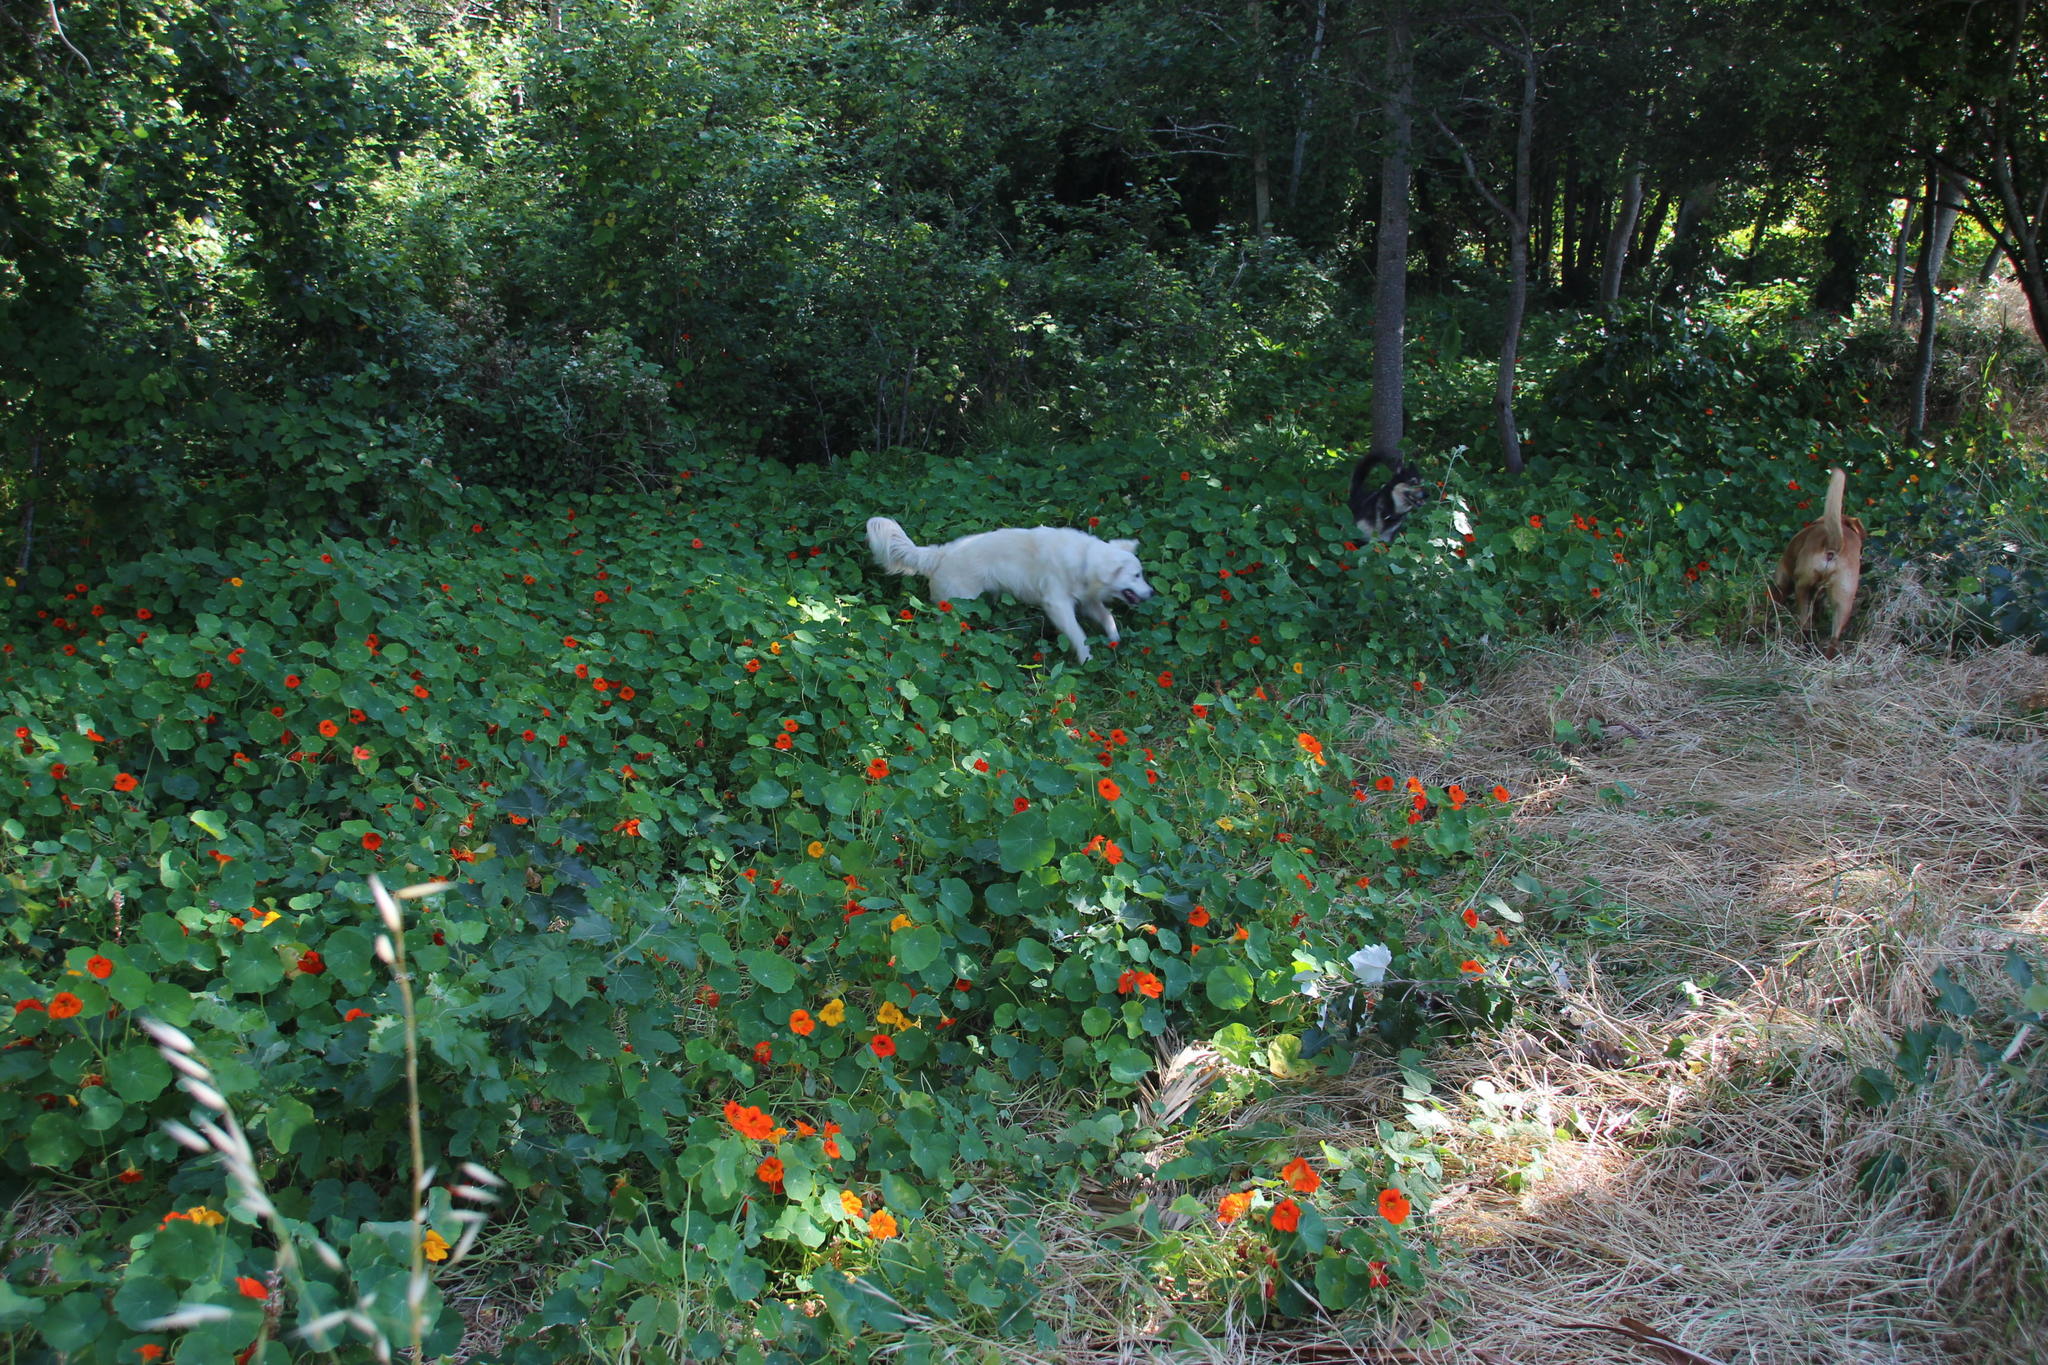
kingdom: Plantae
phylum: Tracheophyta
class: Magnoliopsida
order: Brassicales
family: Tropaeolaceae
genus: Tropaeolum
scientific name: Tropaeolum majus
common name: Nasturtium
